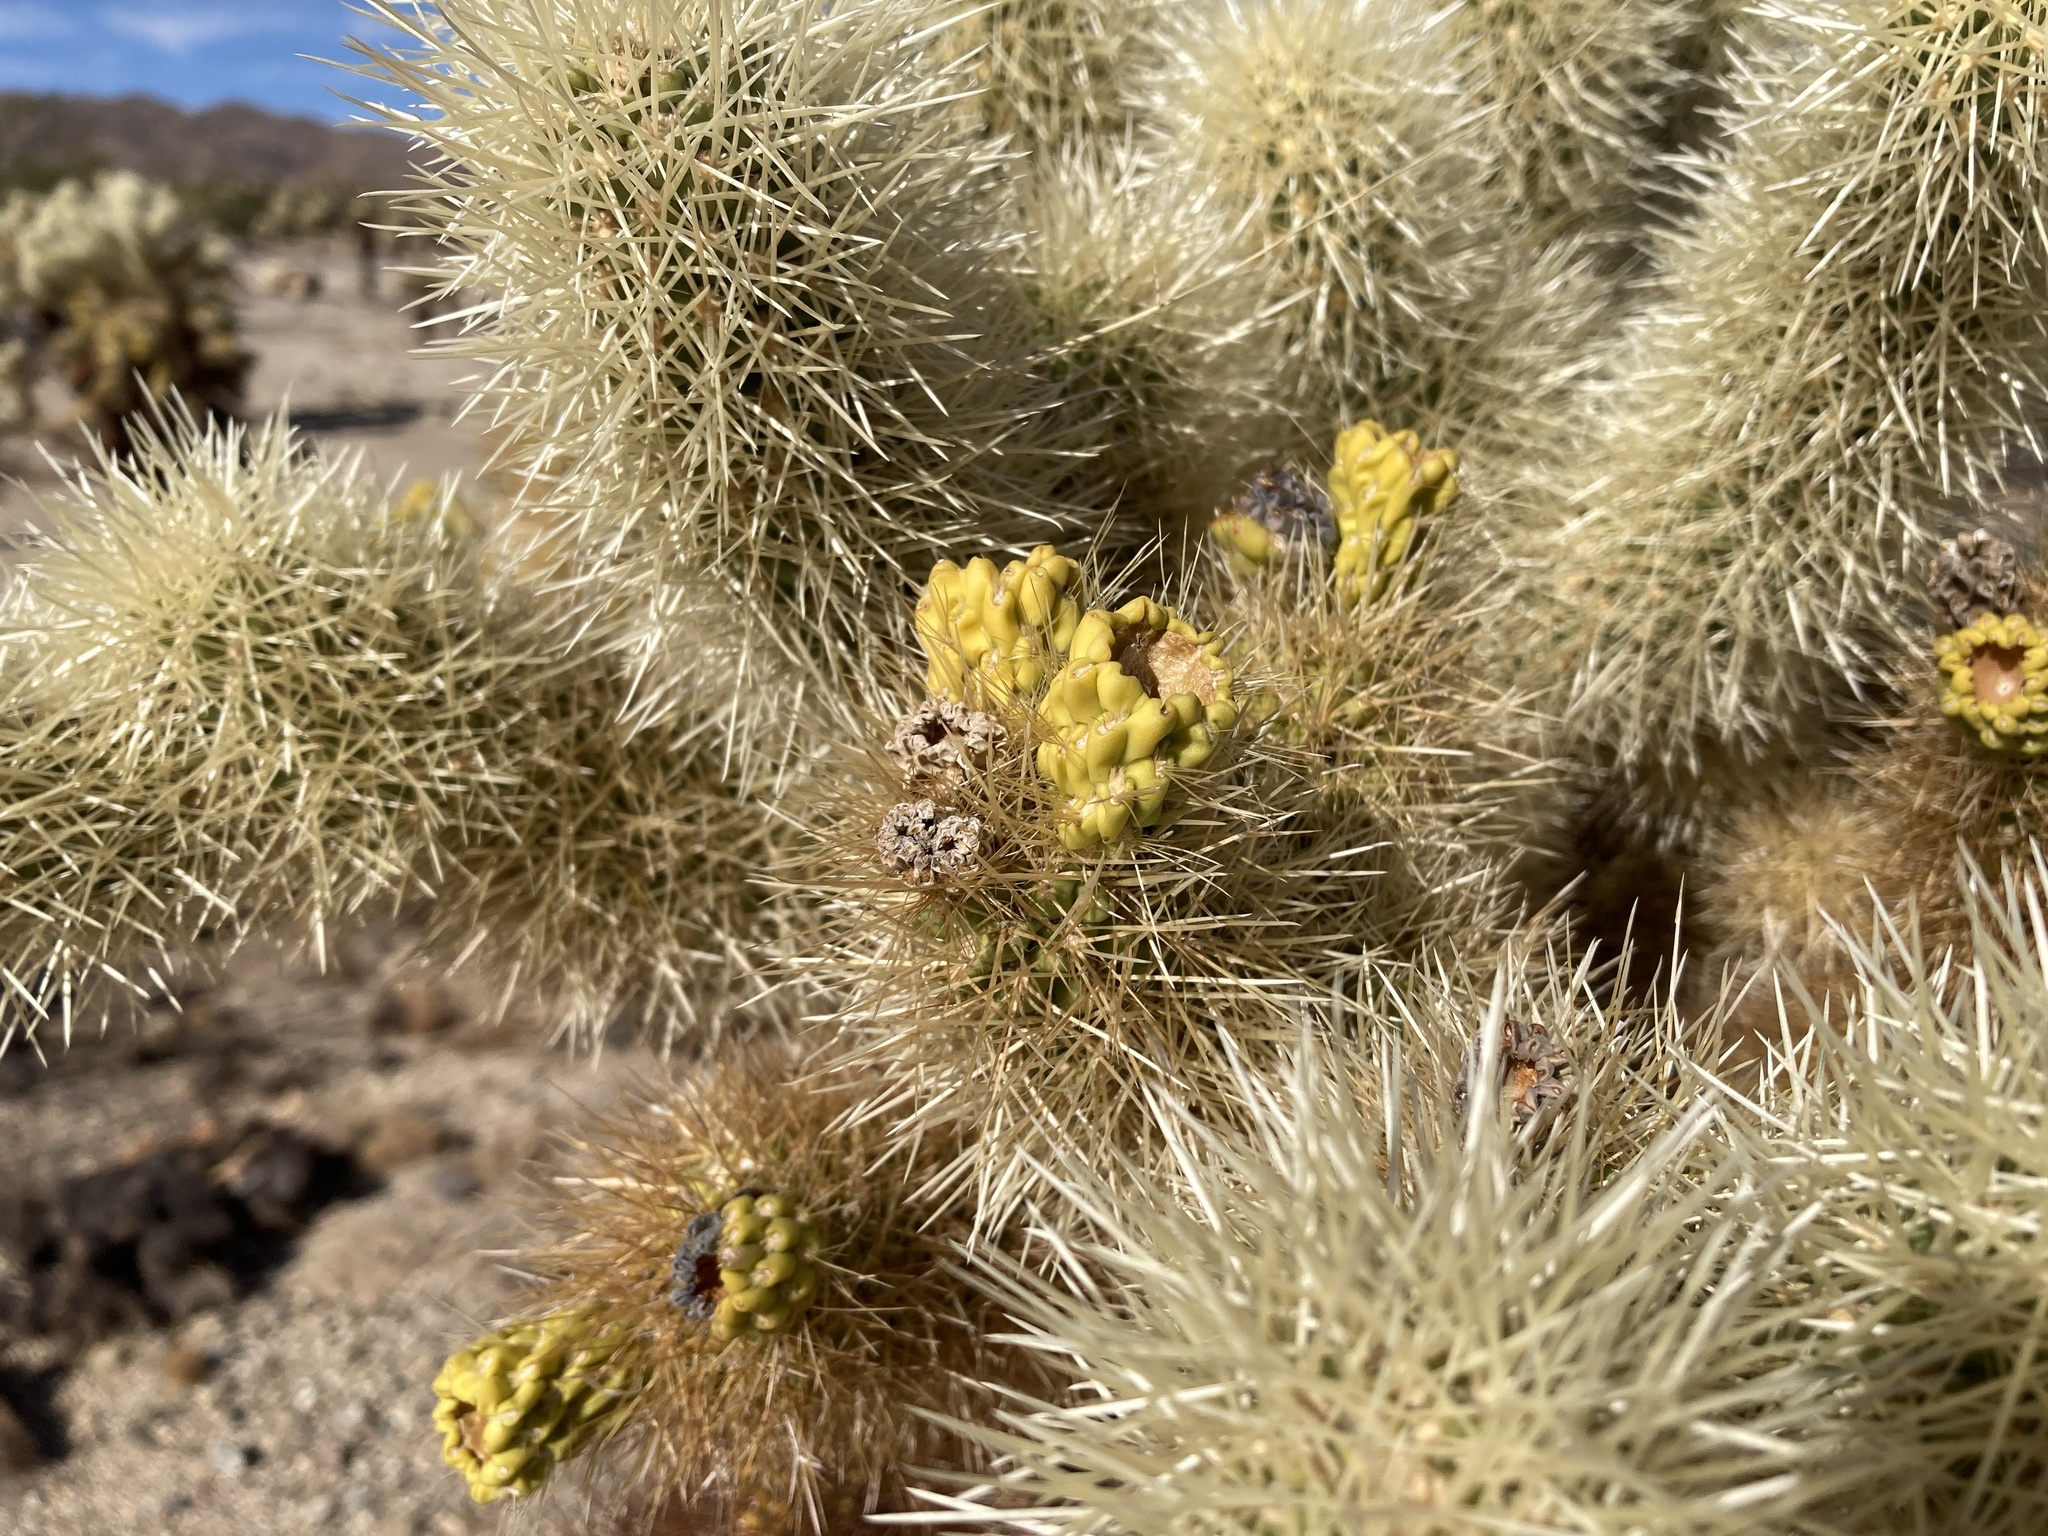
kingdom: Plantae
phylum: Tracheophyta
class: Magnoliopsida
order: Caryophyllales
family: Cactaceae
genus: Cylindropuntia
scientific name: Cylindropuntia fosbergii
